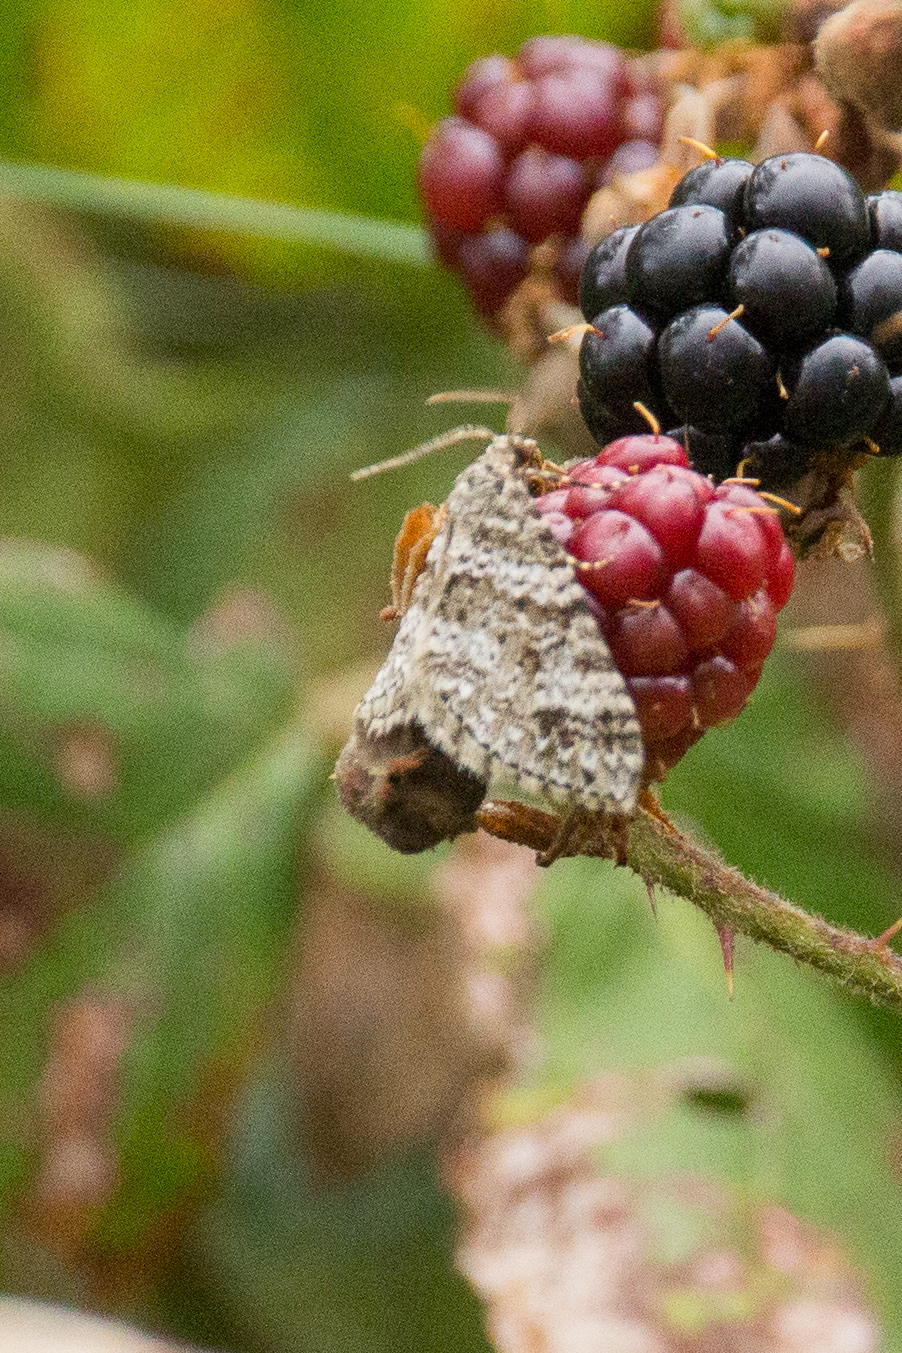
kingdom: Animalia
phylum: Arthropoda
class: Insecta
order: Lepidoptera
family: Geometridae
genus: Perizoma
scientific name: Perizoma didymata
